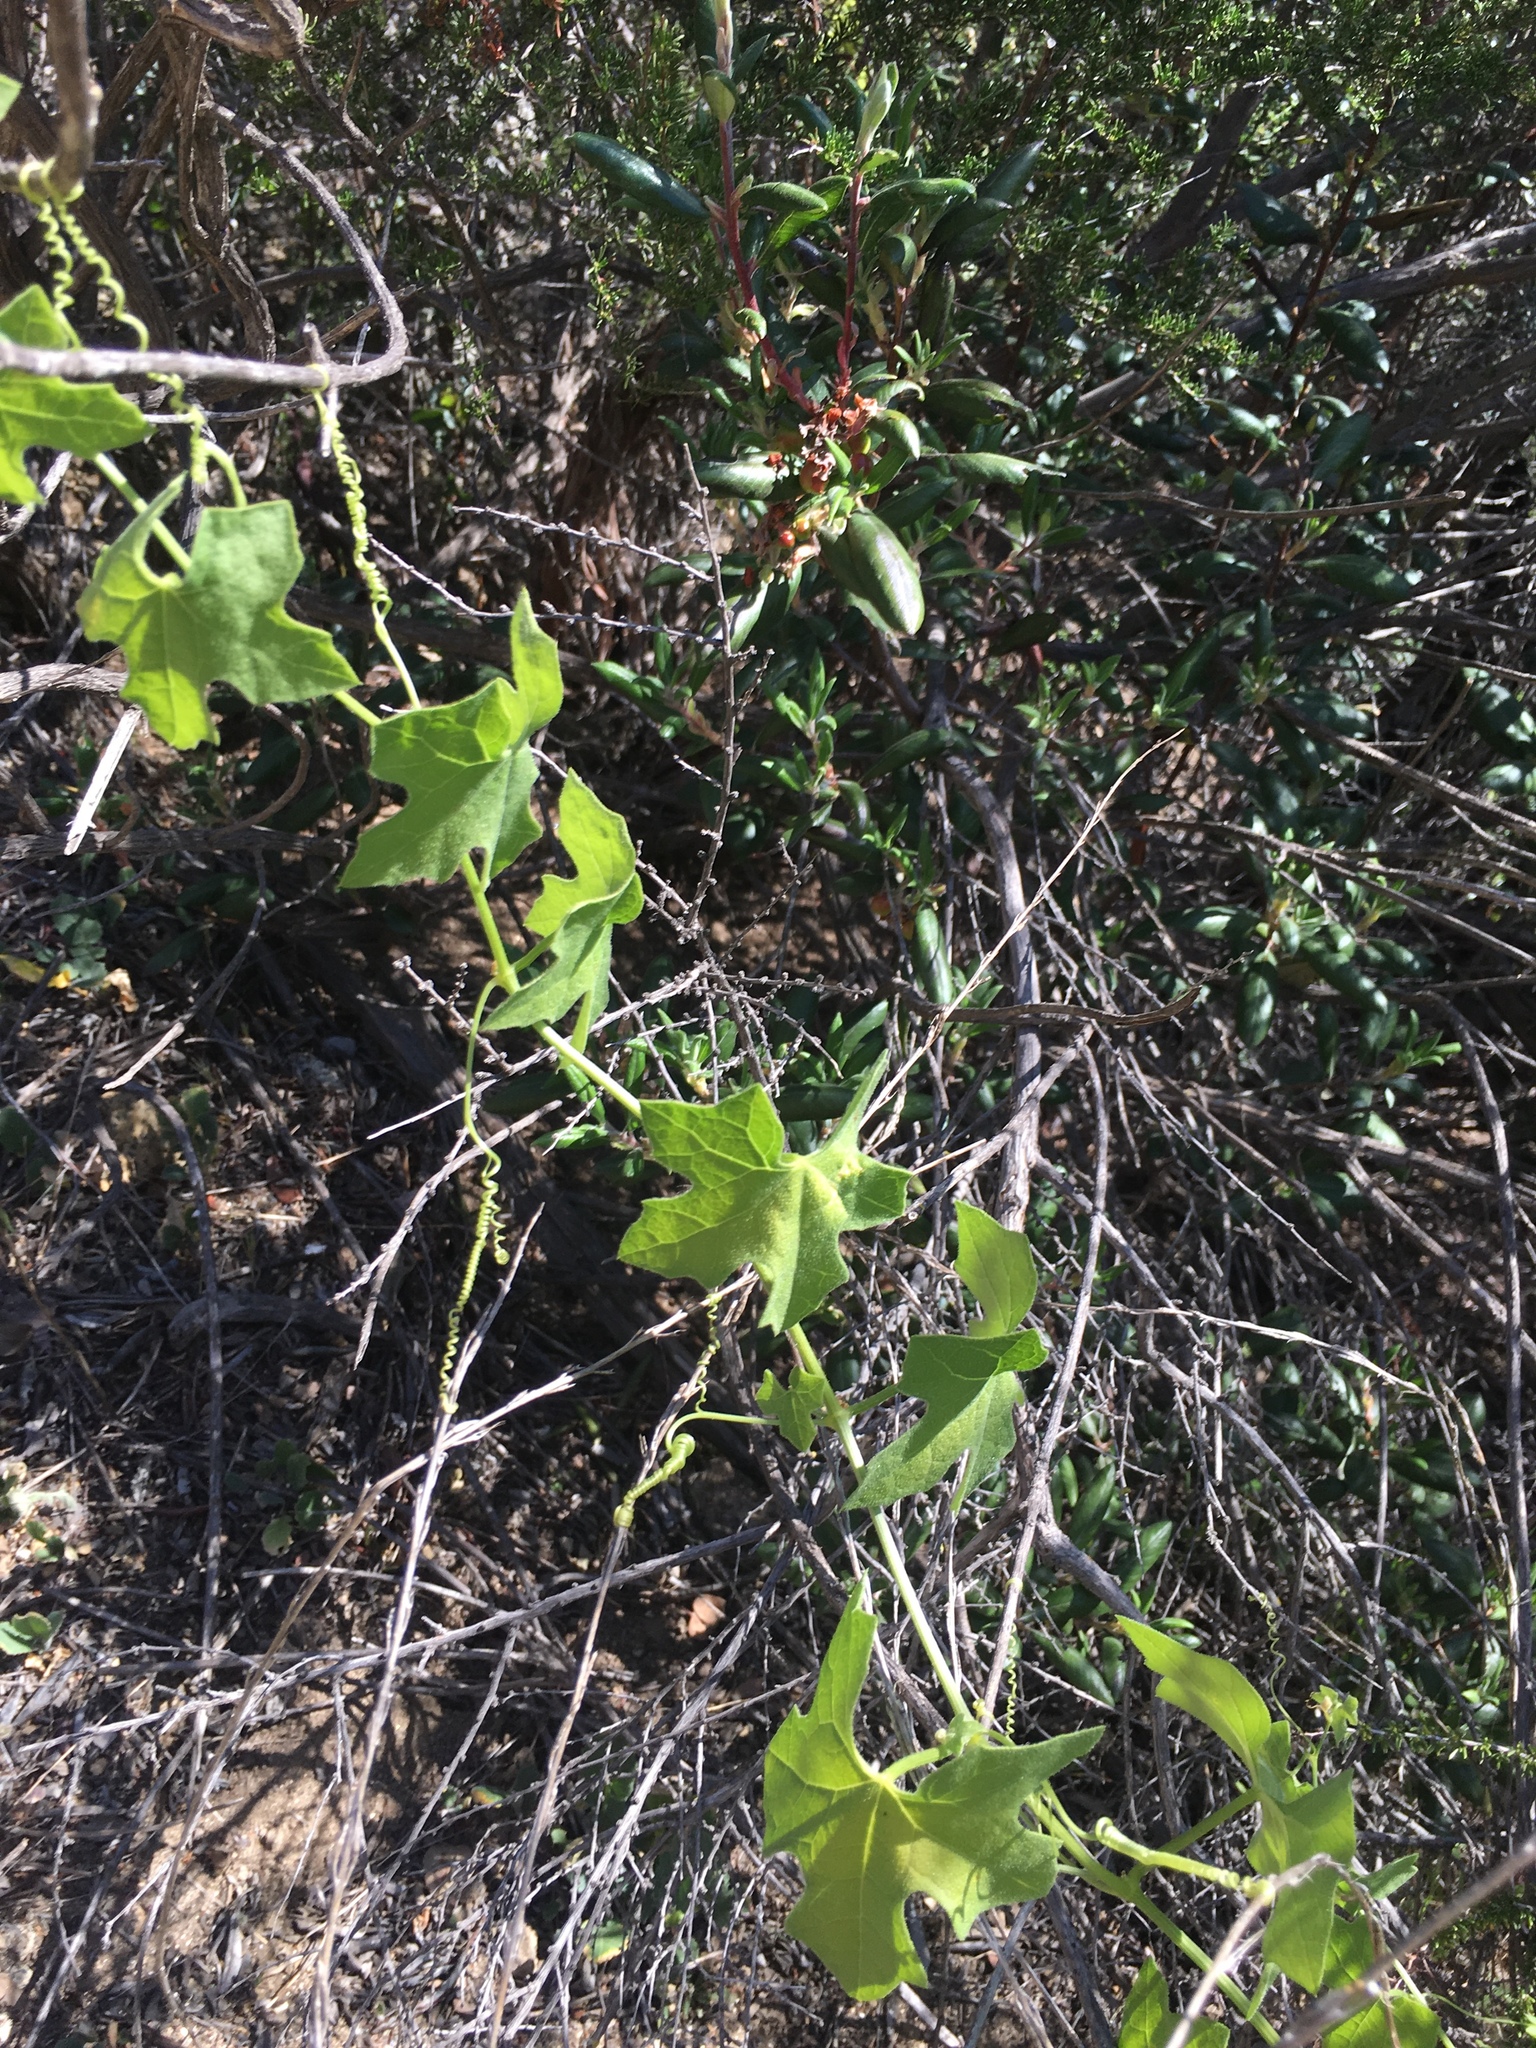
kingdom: Plantae
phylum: Tracheophyta
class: Magnoliopsida
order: Cucurbitales
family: Cucurbitaceae
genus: Marah
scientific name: Marah macrocarpa
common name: Cucamonga manroot
